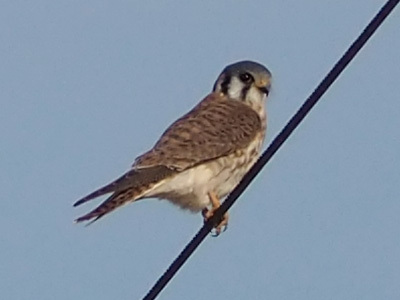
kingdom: Animalia
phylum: Chordata
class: Aves
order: Falconiformes
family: Falconidae
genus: Falco
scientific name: Falco sparverius
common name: American kestrel
